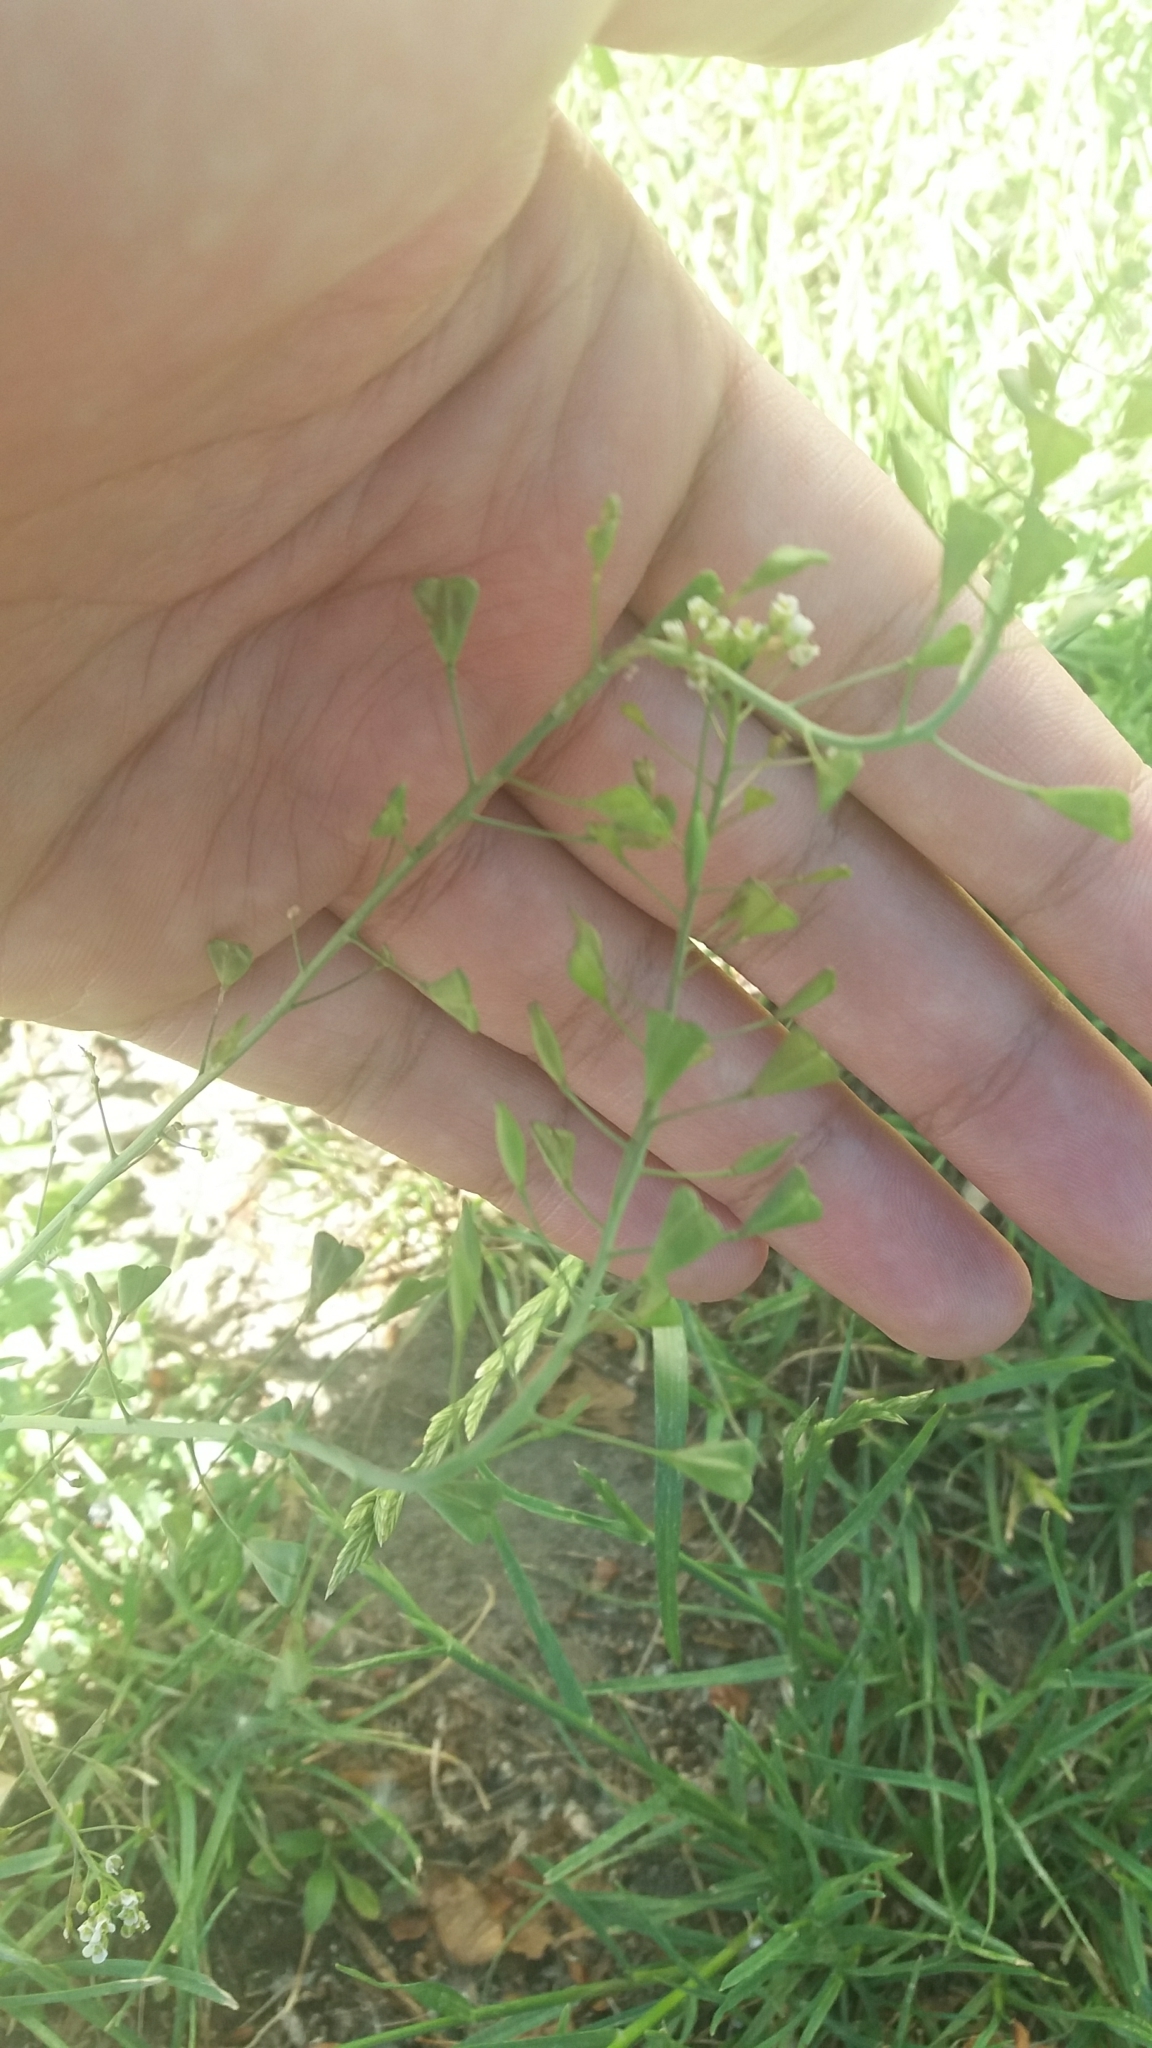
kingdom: Plantae
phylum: Tracheophyta
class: Magnoliopsida
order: Brassicales
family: Brassicaceae
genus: Capsella
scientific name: Capsella bursa-pastoris
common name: Shepherd's purse
